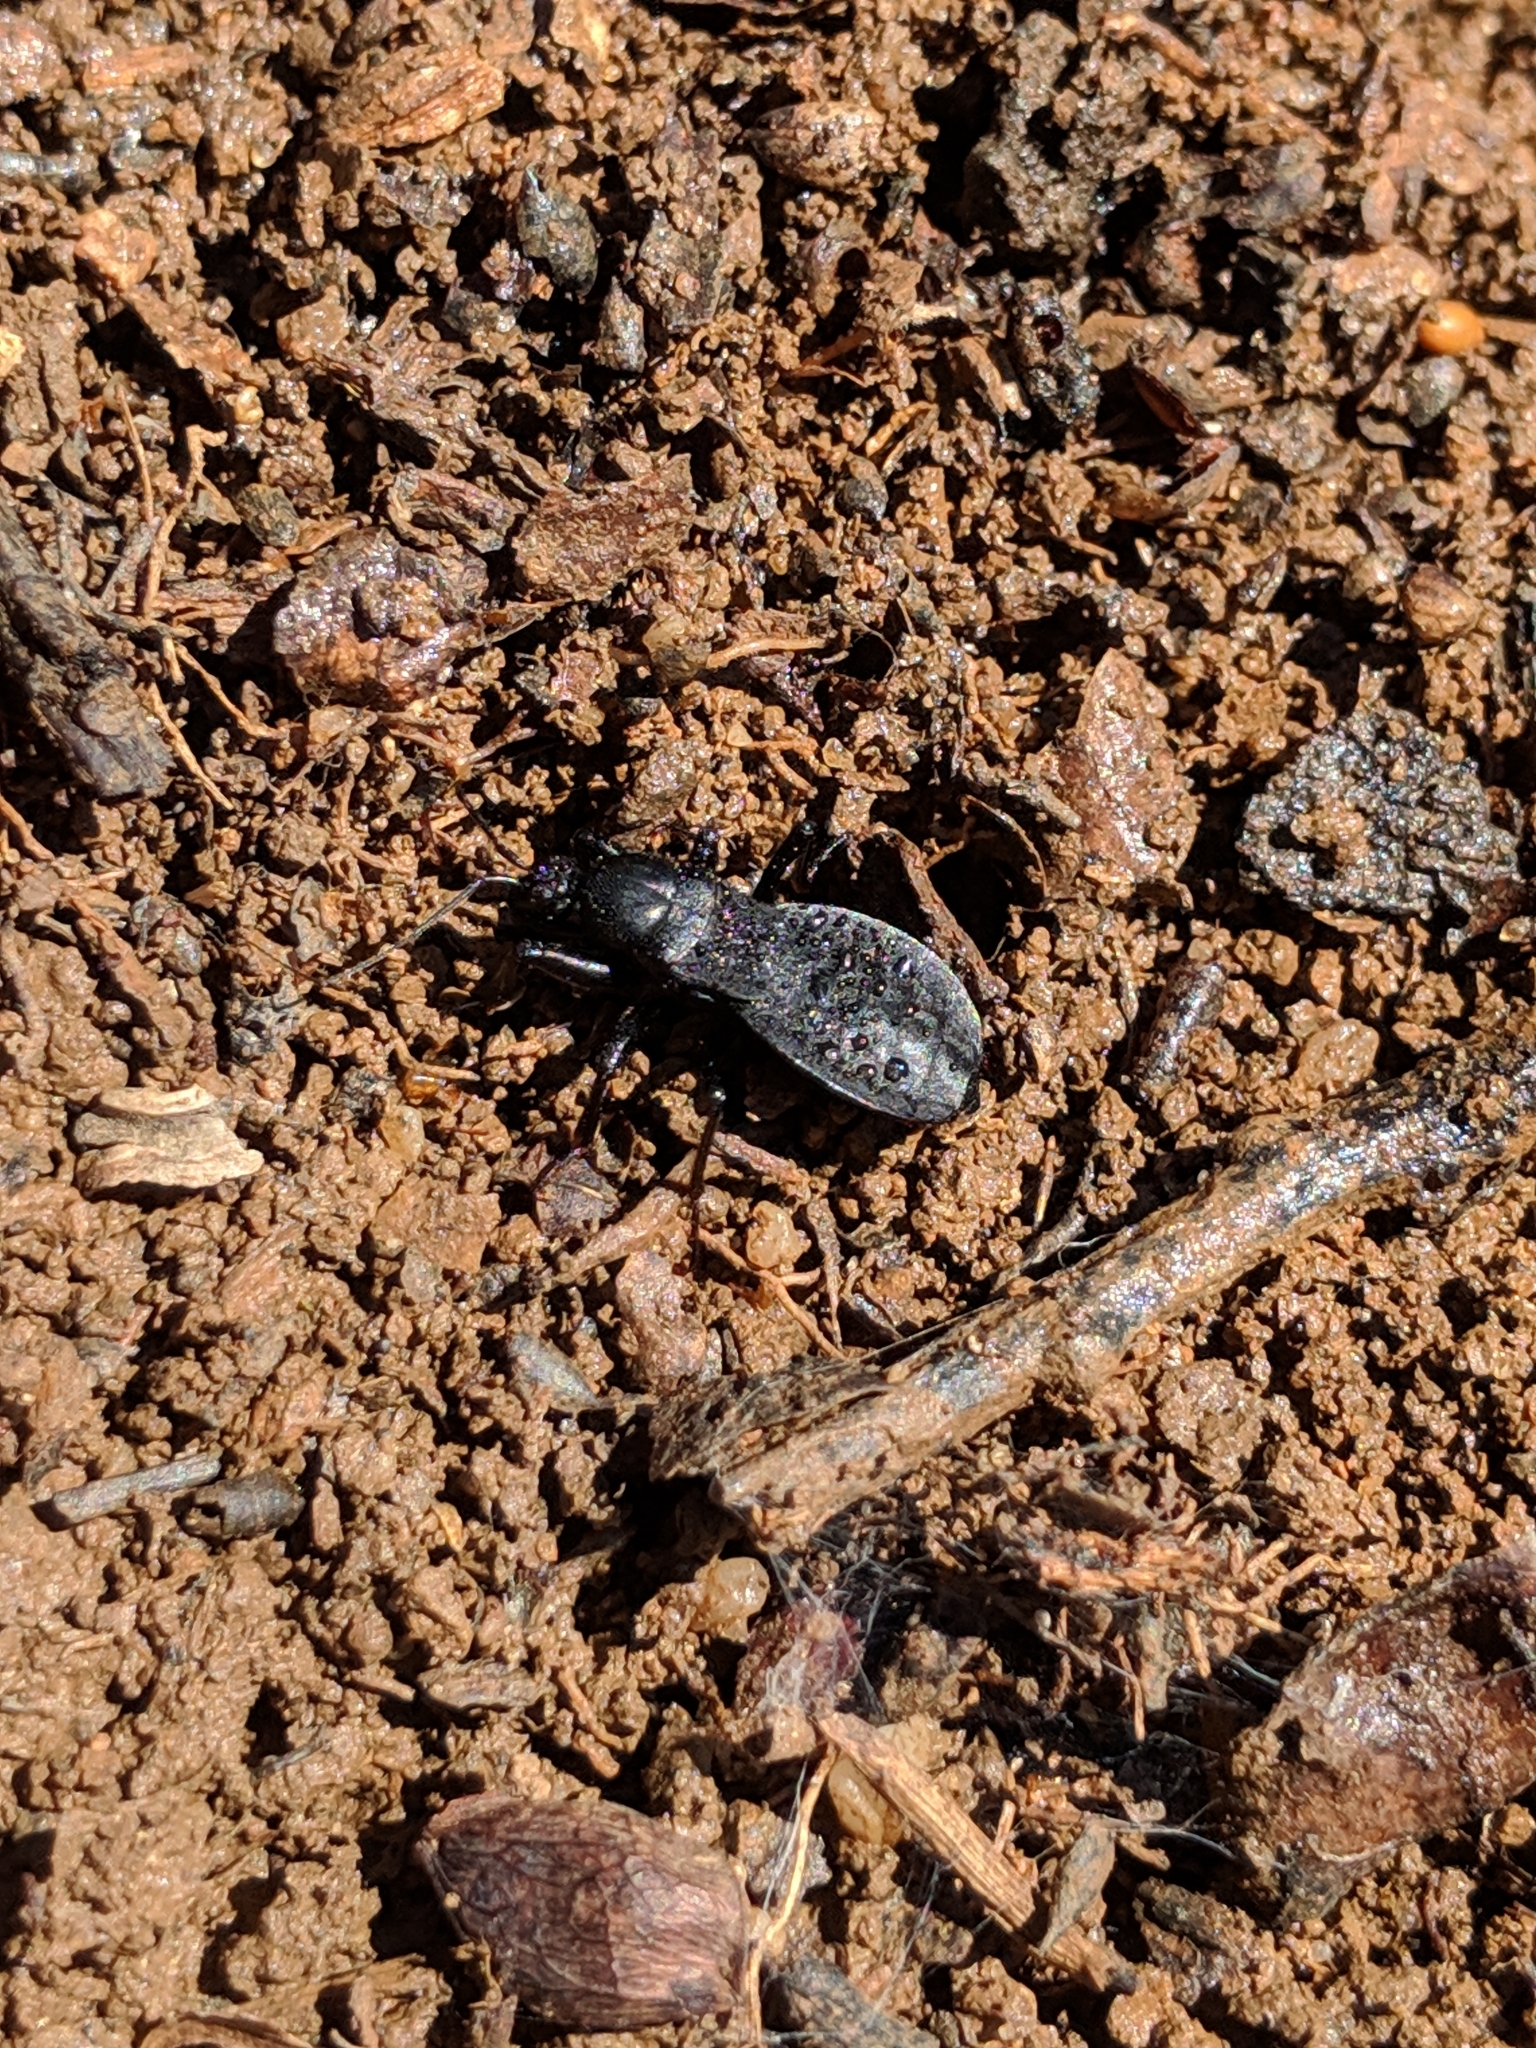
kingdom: Animalia
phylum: Arthropoda
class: Insecta
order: Hemiptera
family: Reduviidae
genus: Melanolestes
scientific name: Melanolestes picipes
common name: Assassin bug
